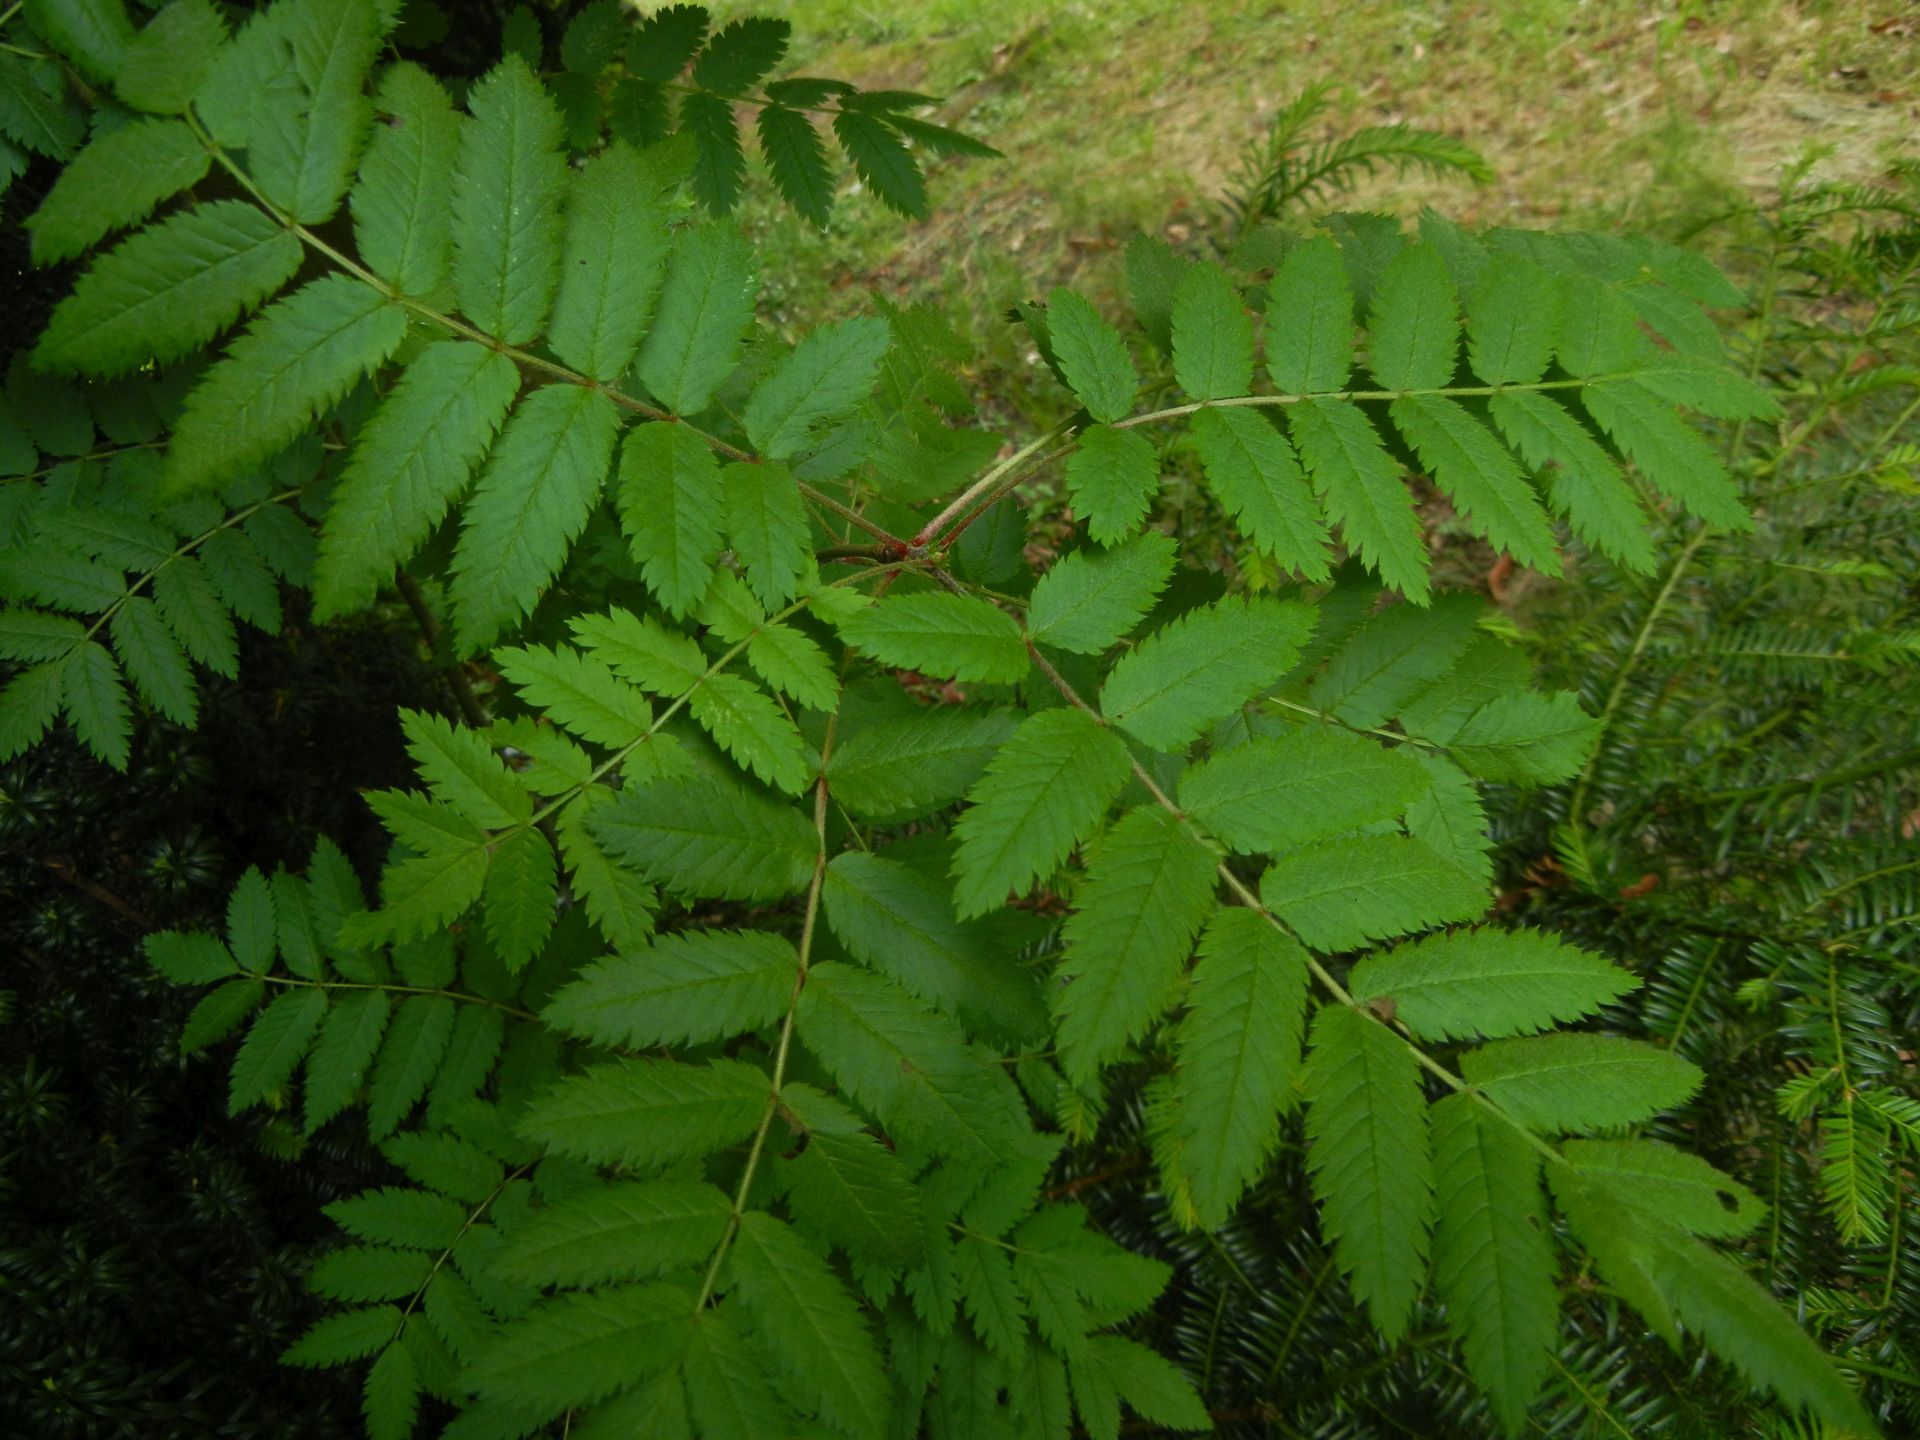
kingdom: Plantae
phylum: Tracheophyta
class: Magnoliopsida
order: Rosales
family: Rosaceae
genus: Sorbus
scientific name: Sorbus aucuparia
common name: Rowan
